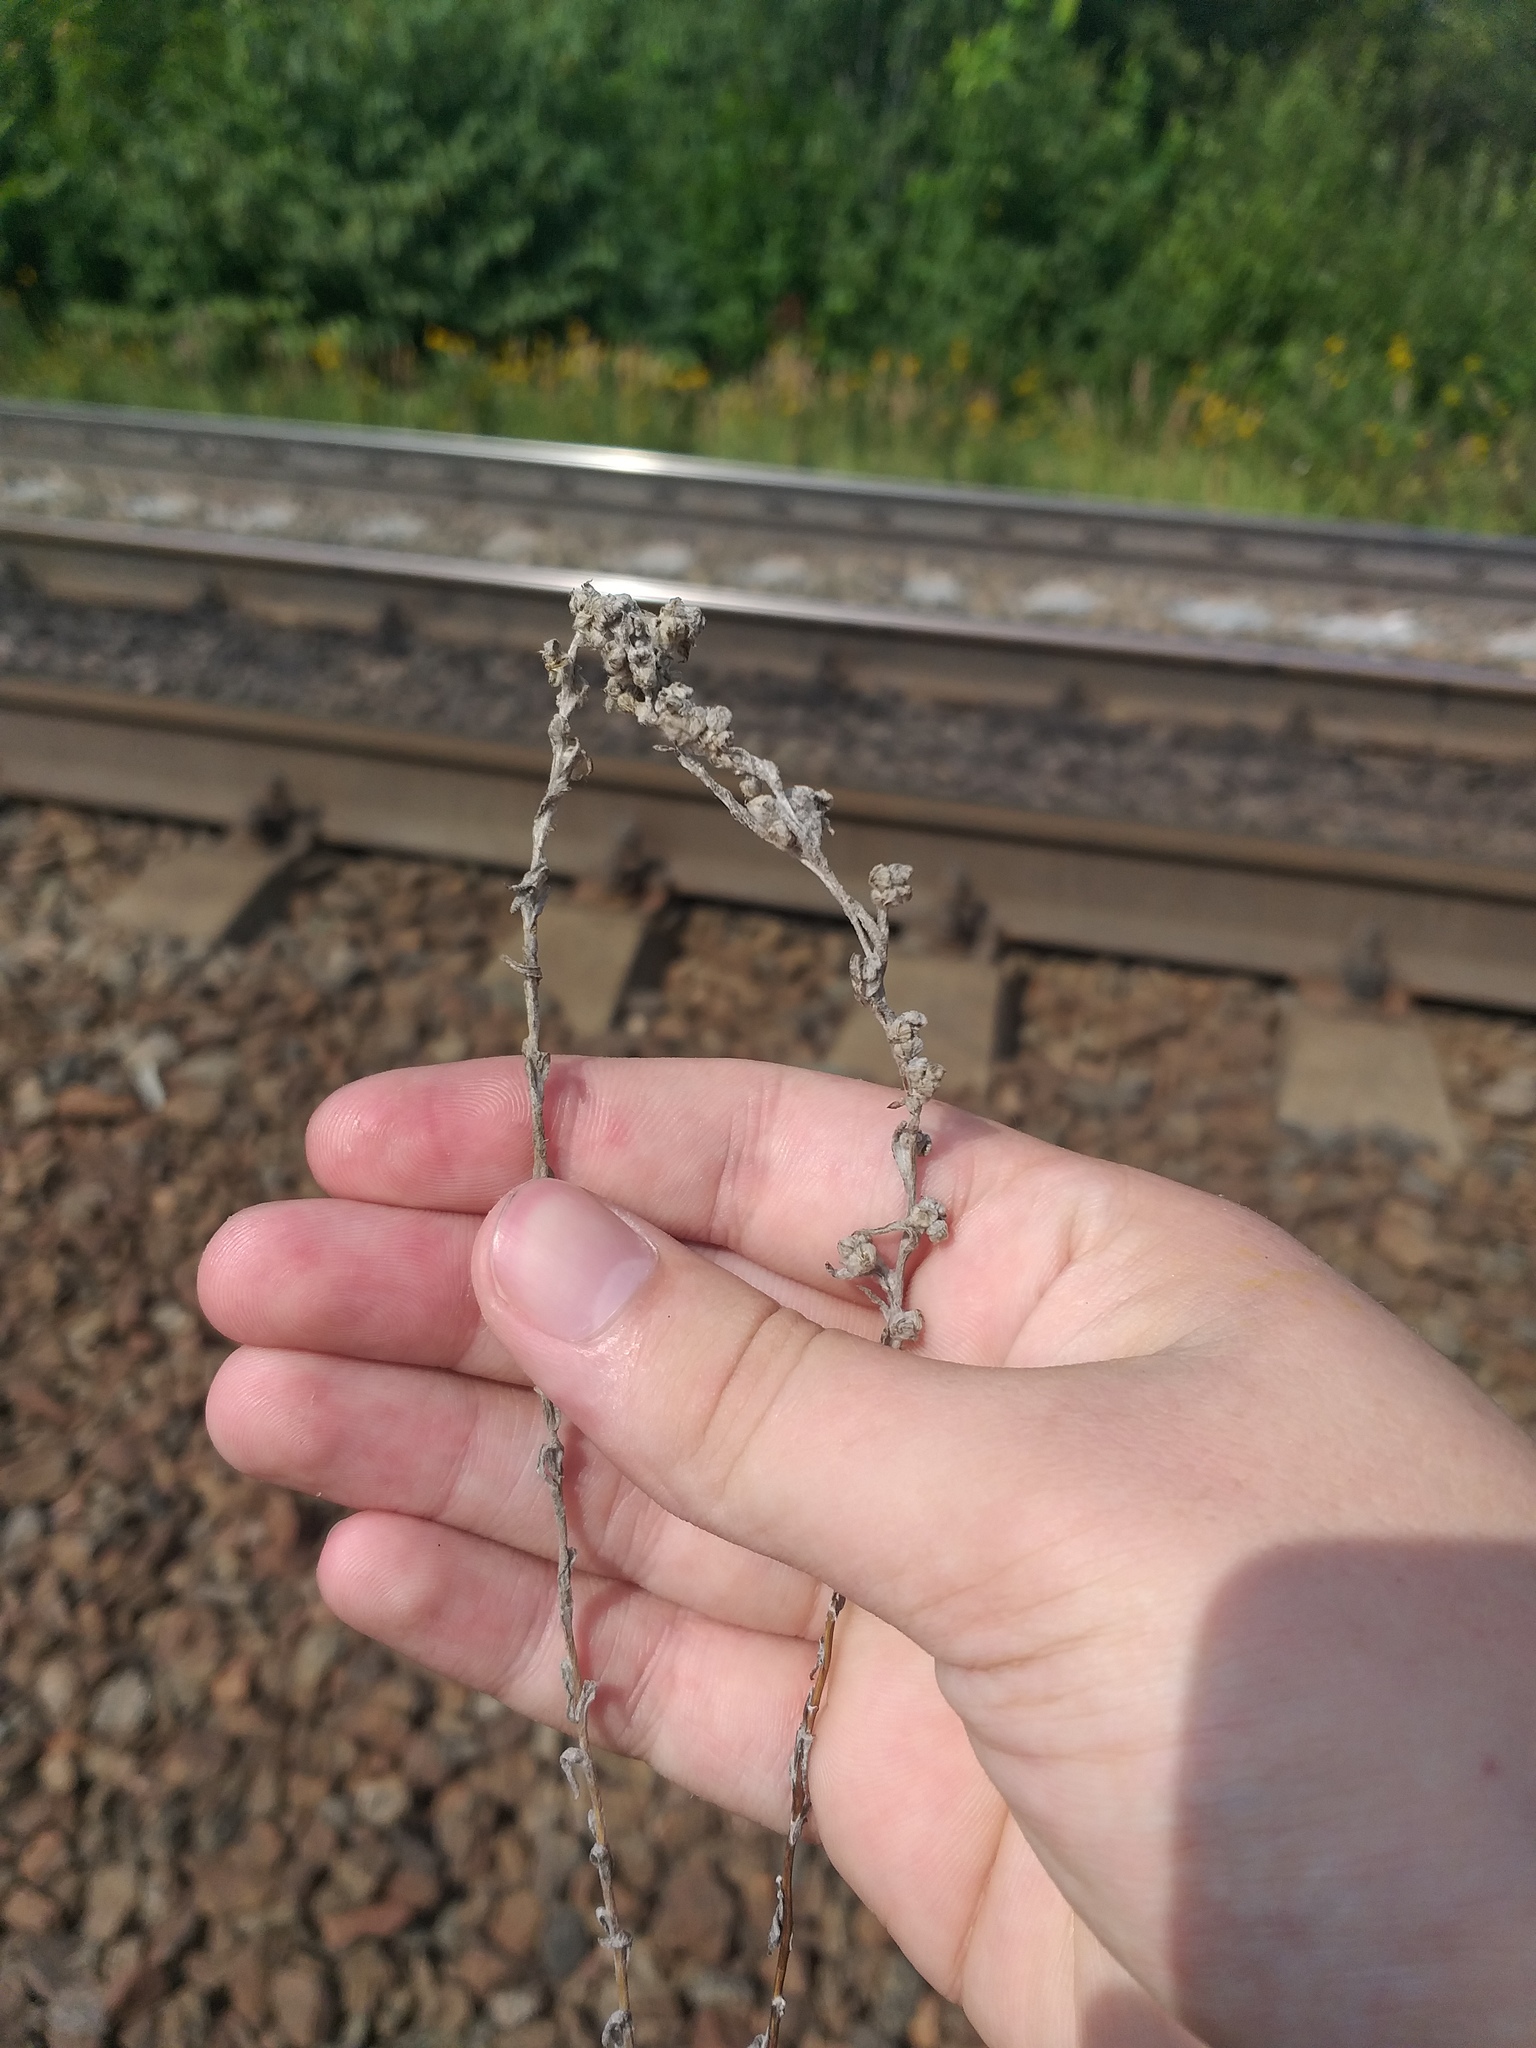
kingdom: Plantae
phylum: Tracheophyta
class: Magnoliopsida
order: Asterales
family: Asteraceae
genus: Filago
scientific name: Filago arvensis
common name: Field cudweed
